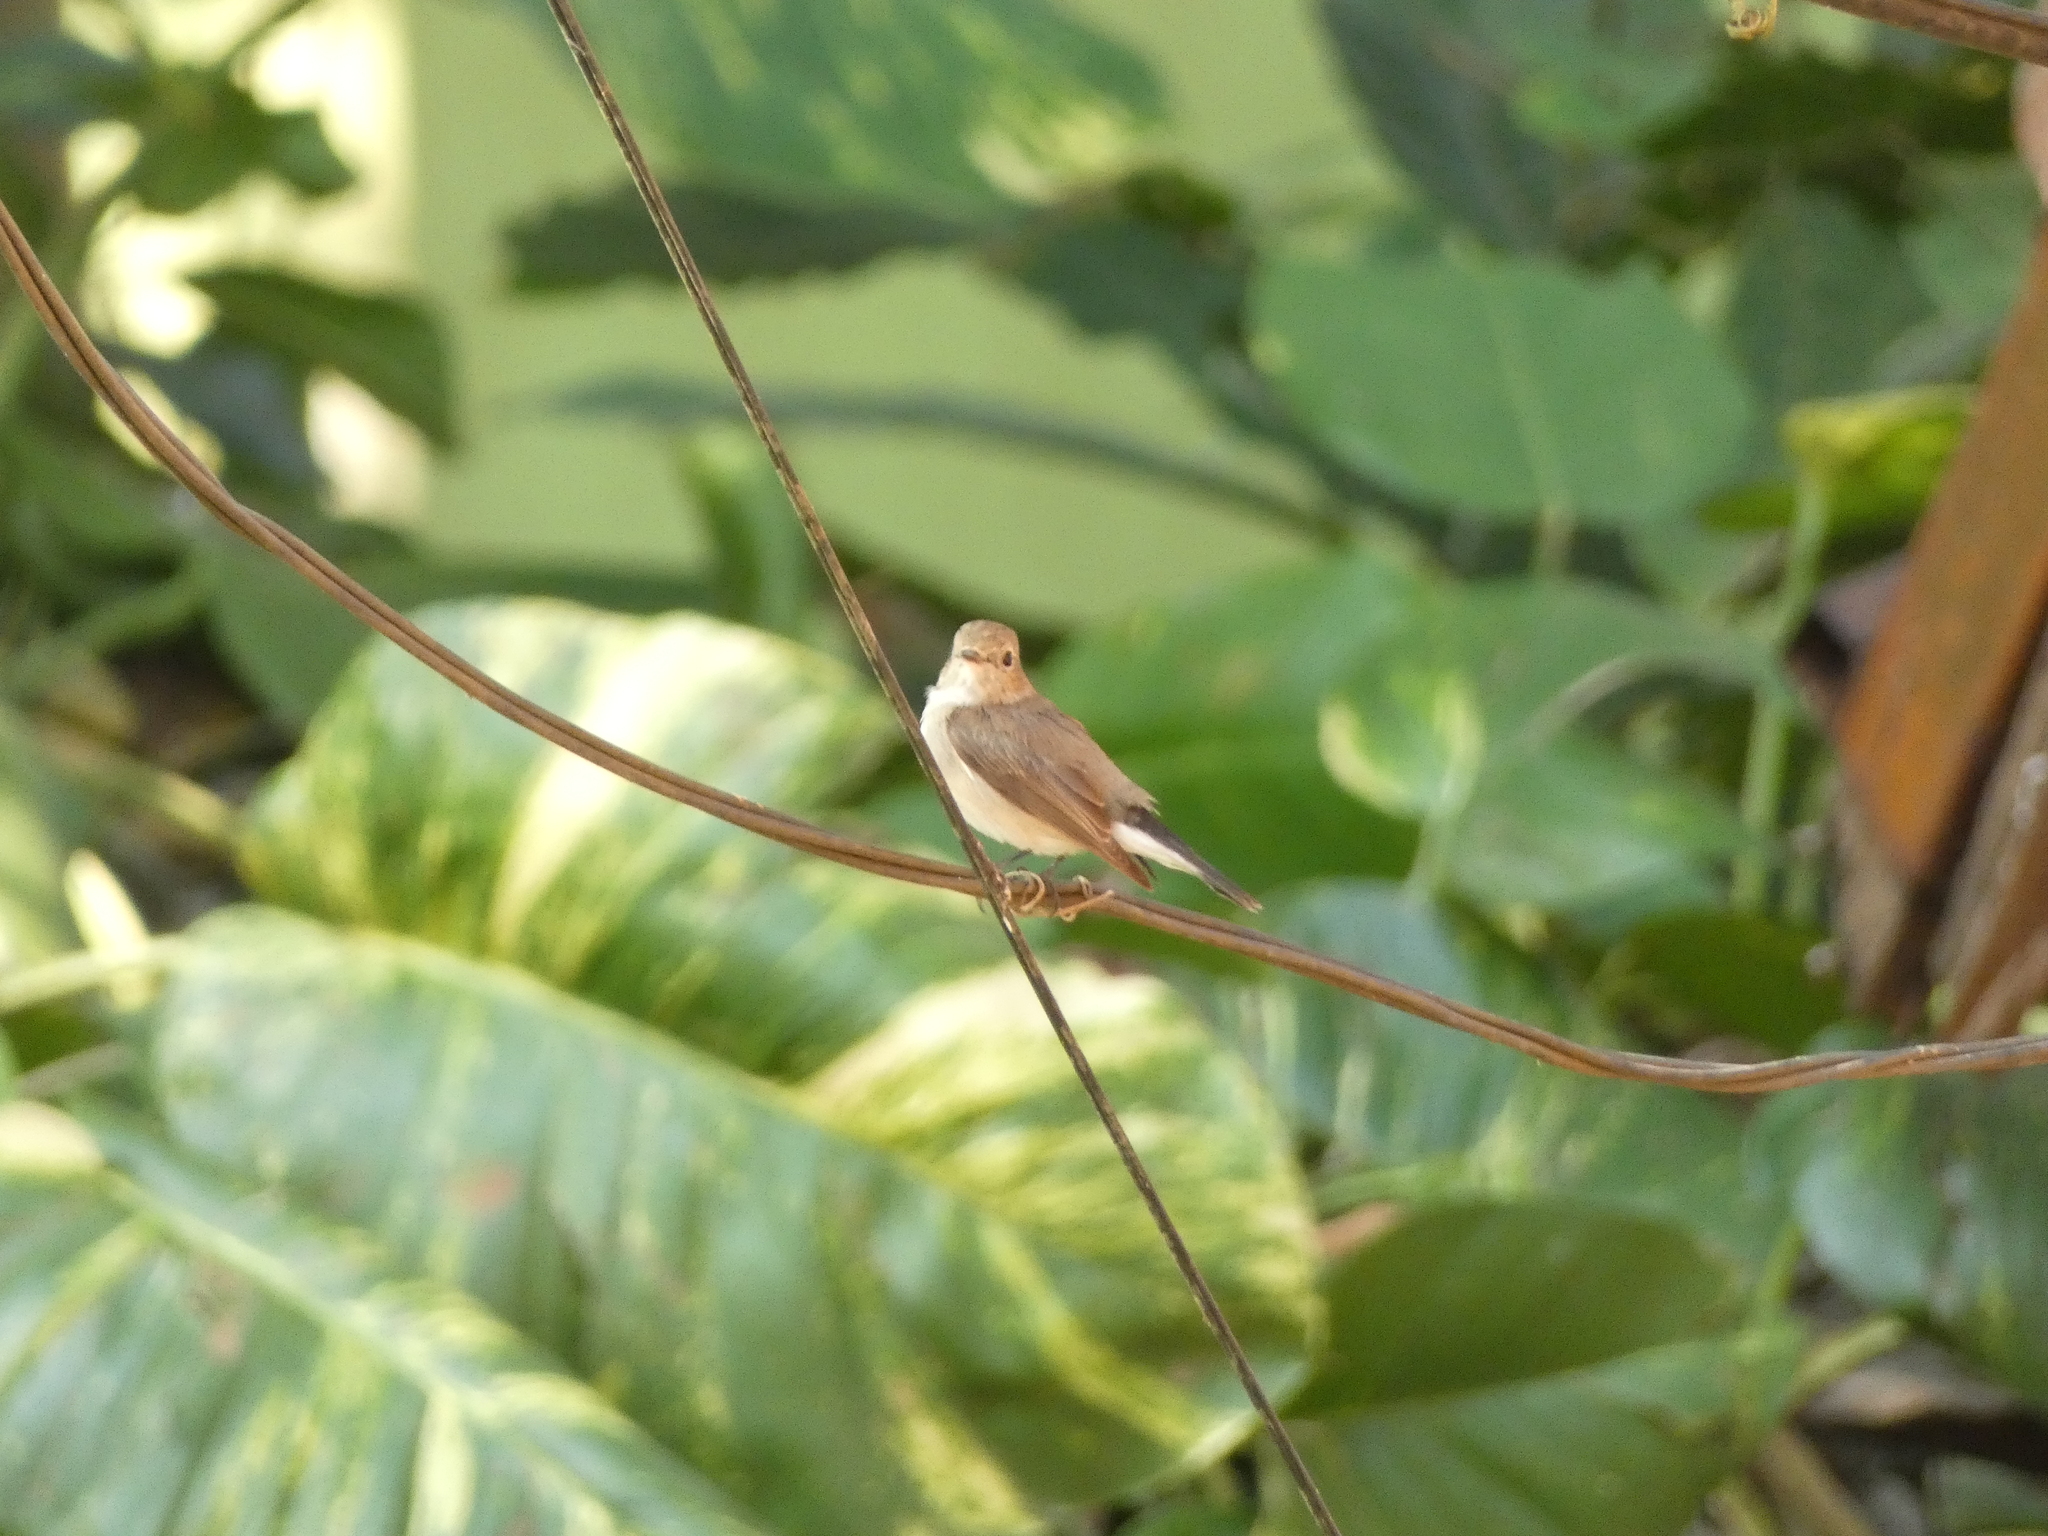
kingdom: Animalia
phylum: Chordata
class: Aves
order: Passeriformes
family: Muscicapidae
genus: Ficedula
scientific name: Ficedula albicilla
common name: Taiga flycatcher
